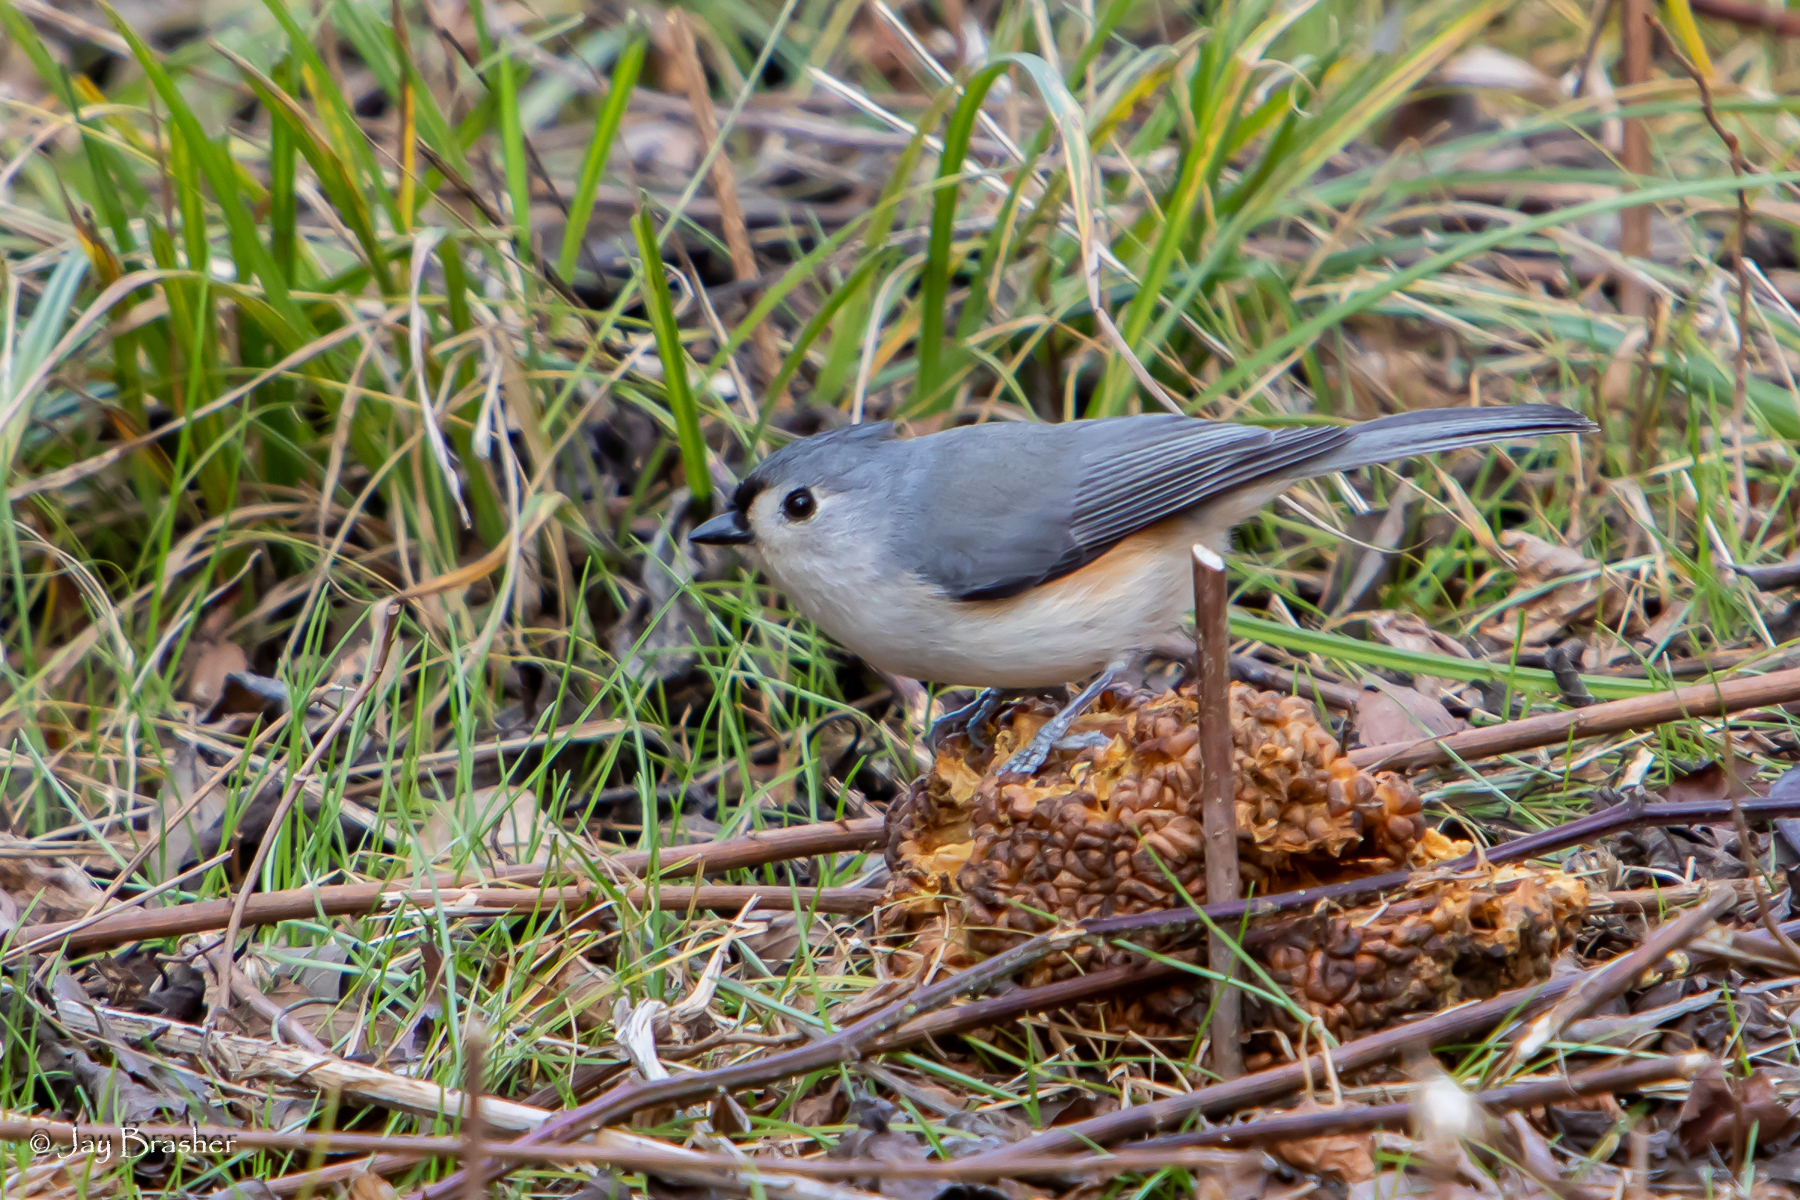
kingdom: Animalia
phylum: Chordata
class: Aves
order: Passeriformes
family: Paridae
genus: Baeolophus
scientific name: Baeolophus bicolor
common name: Tufted titmouse
